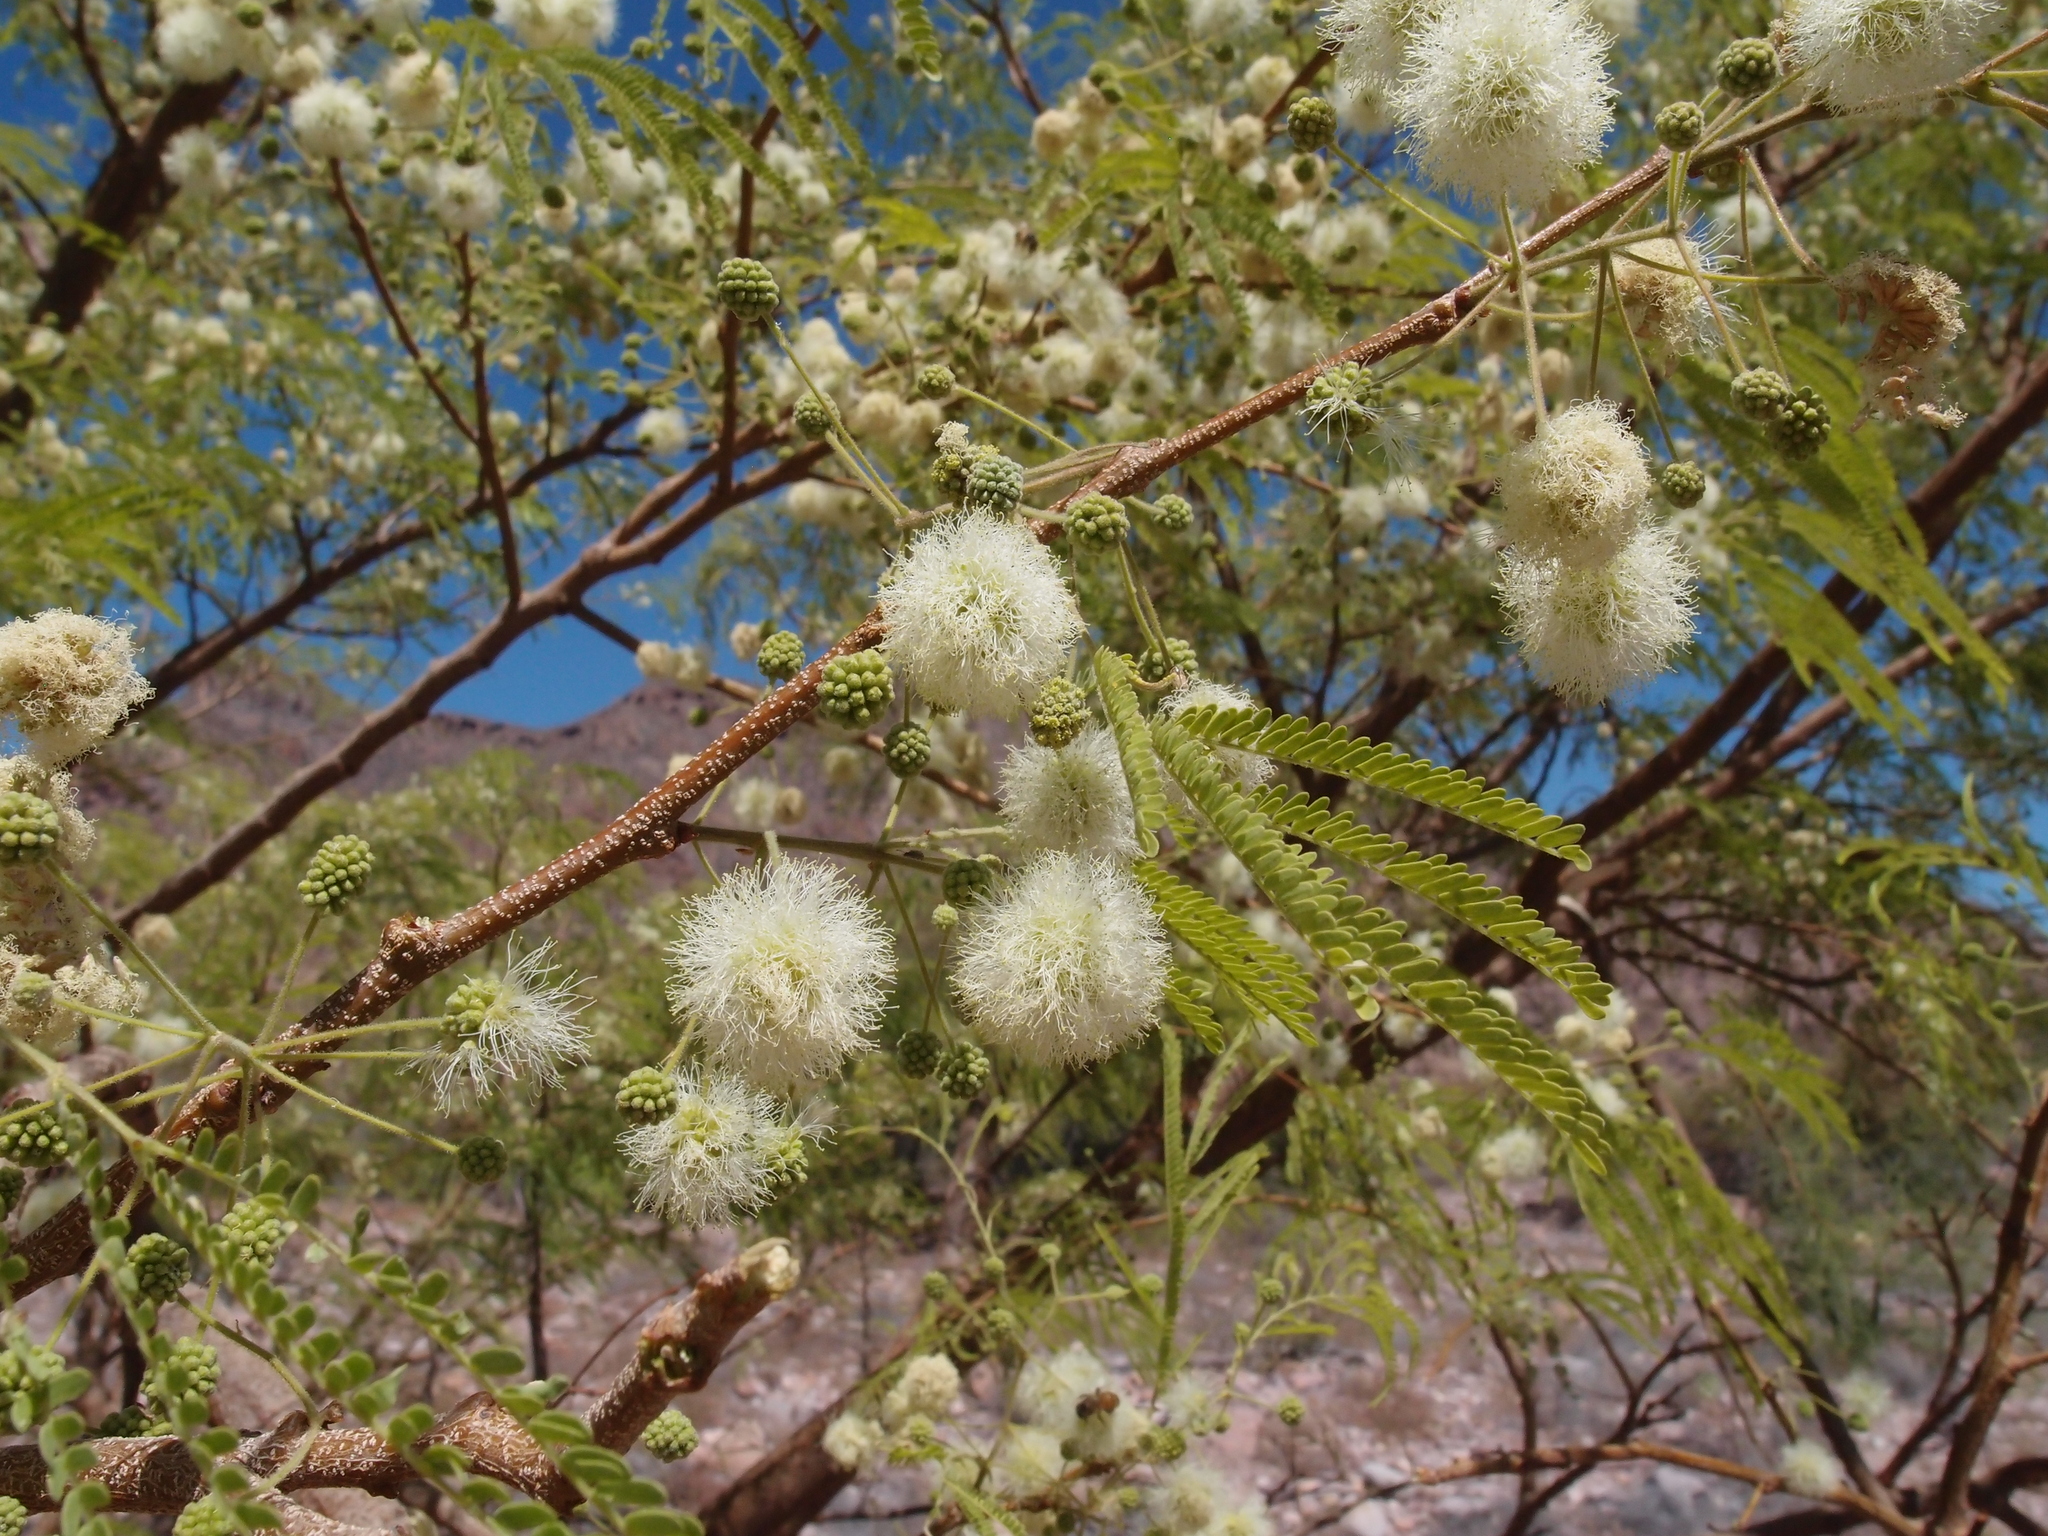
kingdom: Plantae
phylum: Tracheophyta
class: Magnoliopsida
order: Fabales
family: Fabaceae
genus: Lysiloma
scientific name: Lysiloma divaricatum
